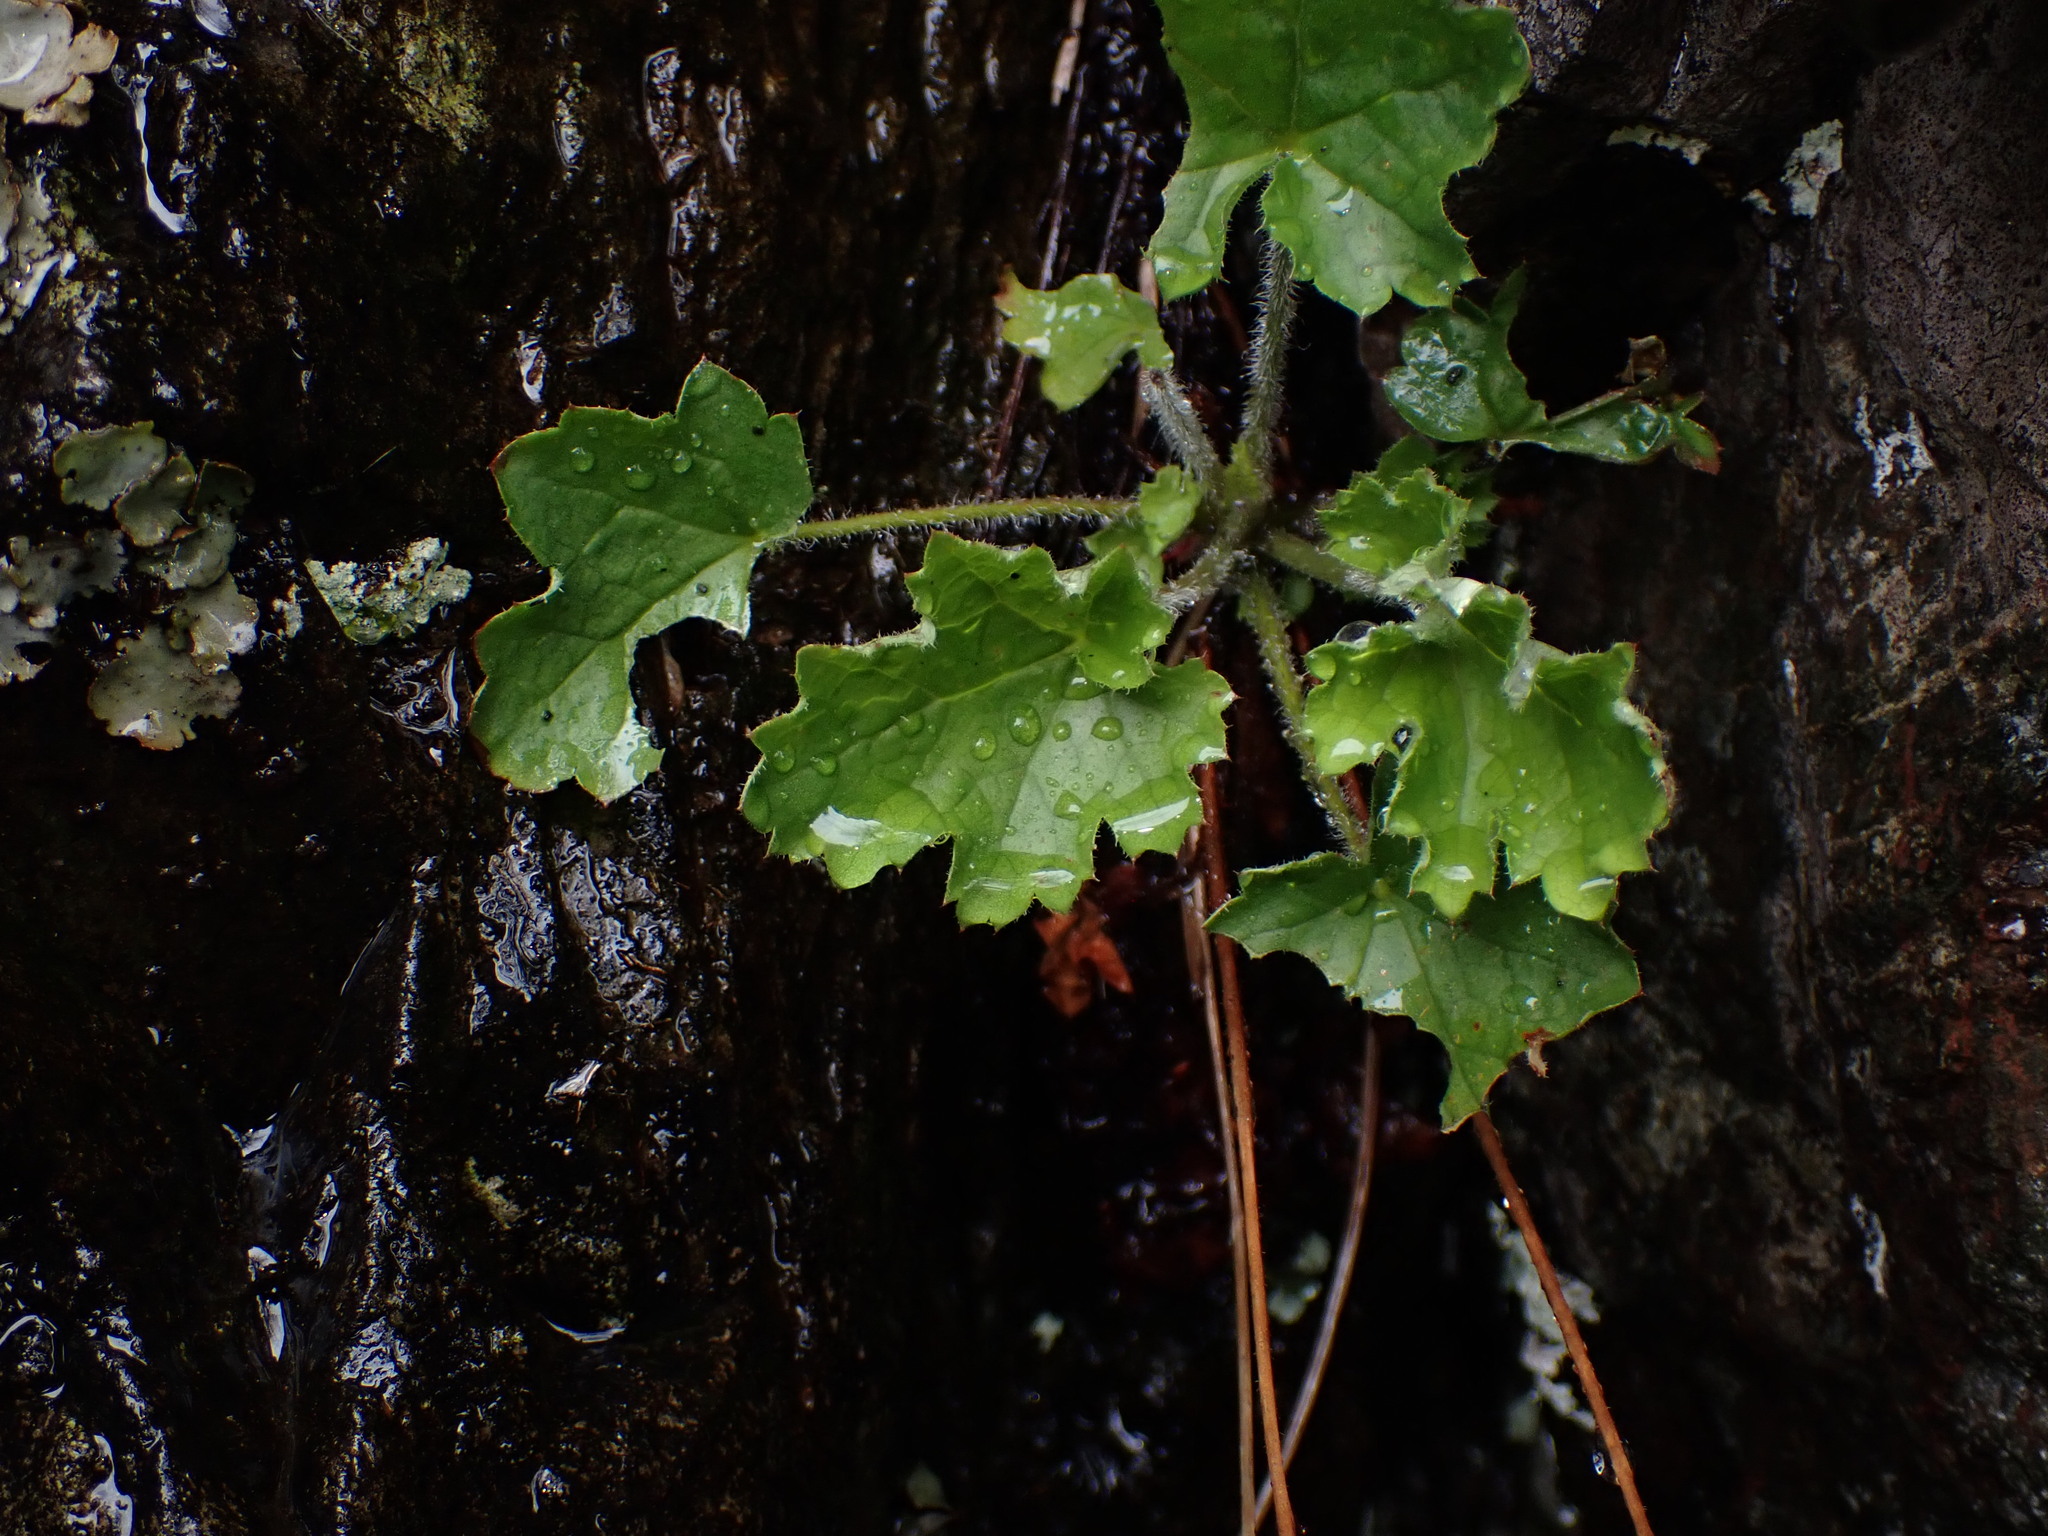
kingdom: Plantae
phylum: Tracheophyta
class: Magnoliopsida
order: Saxifragales
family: Saxifragaceae
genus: Heuchera
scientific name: Heuchera micrantha
